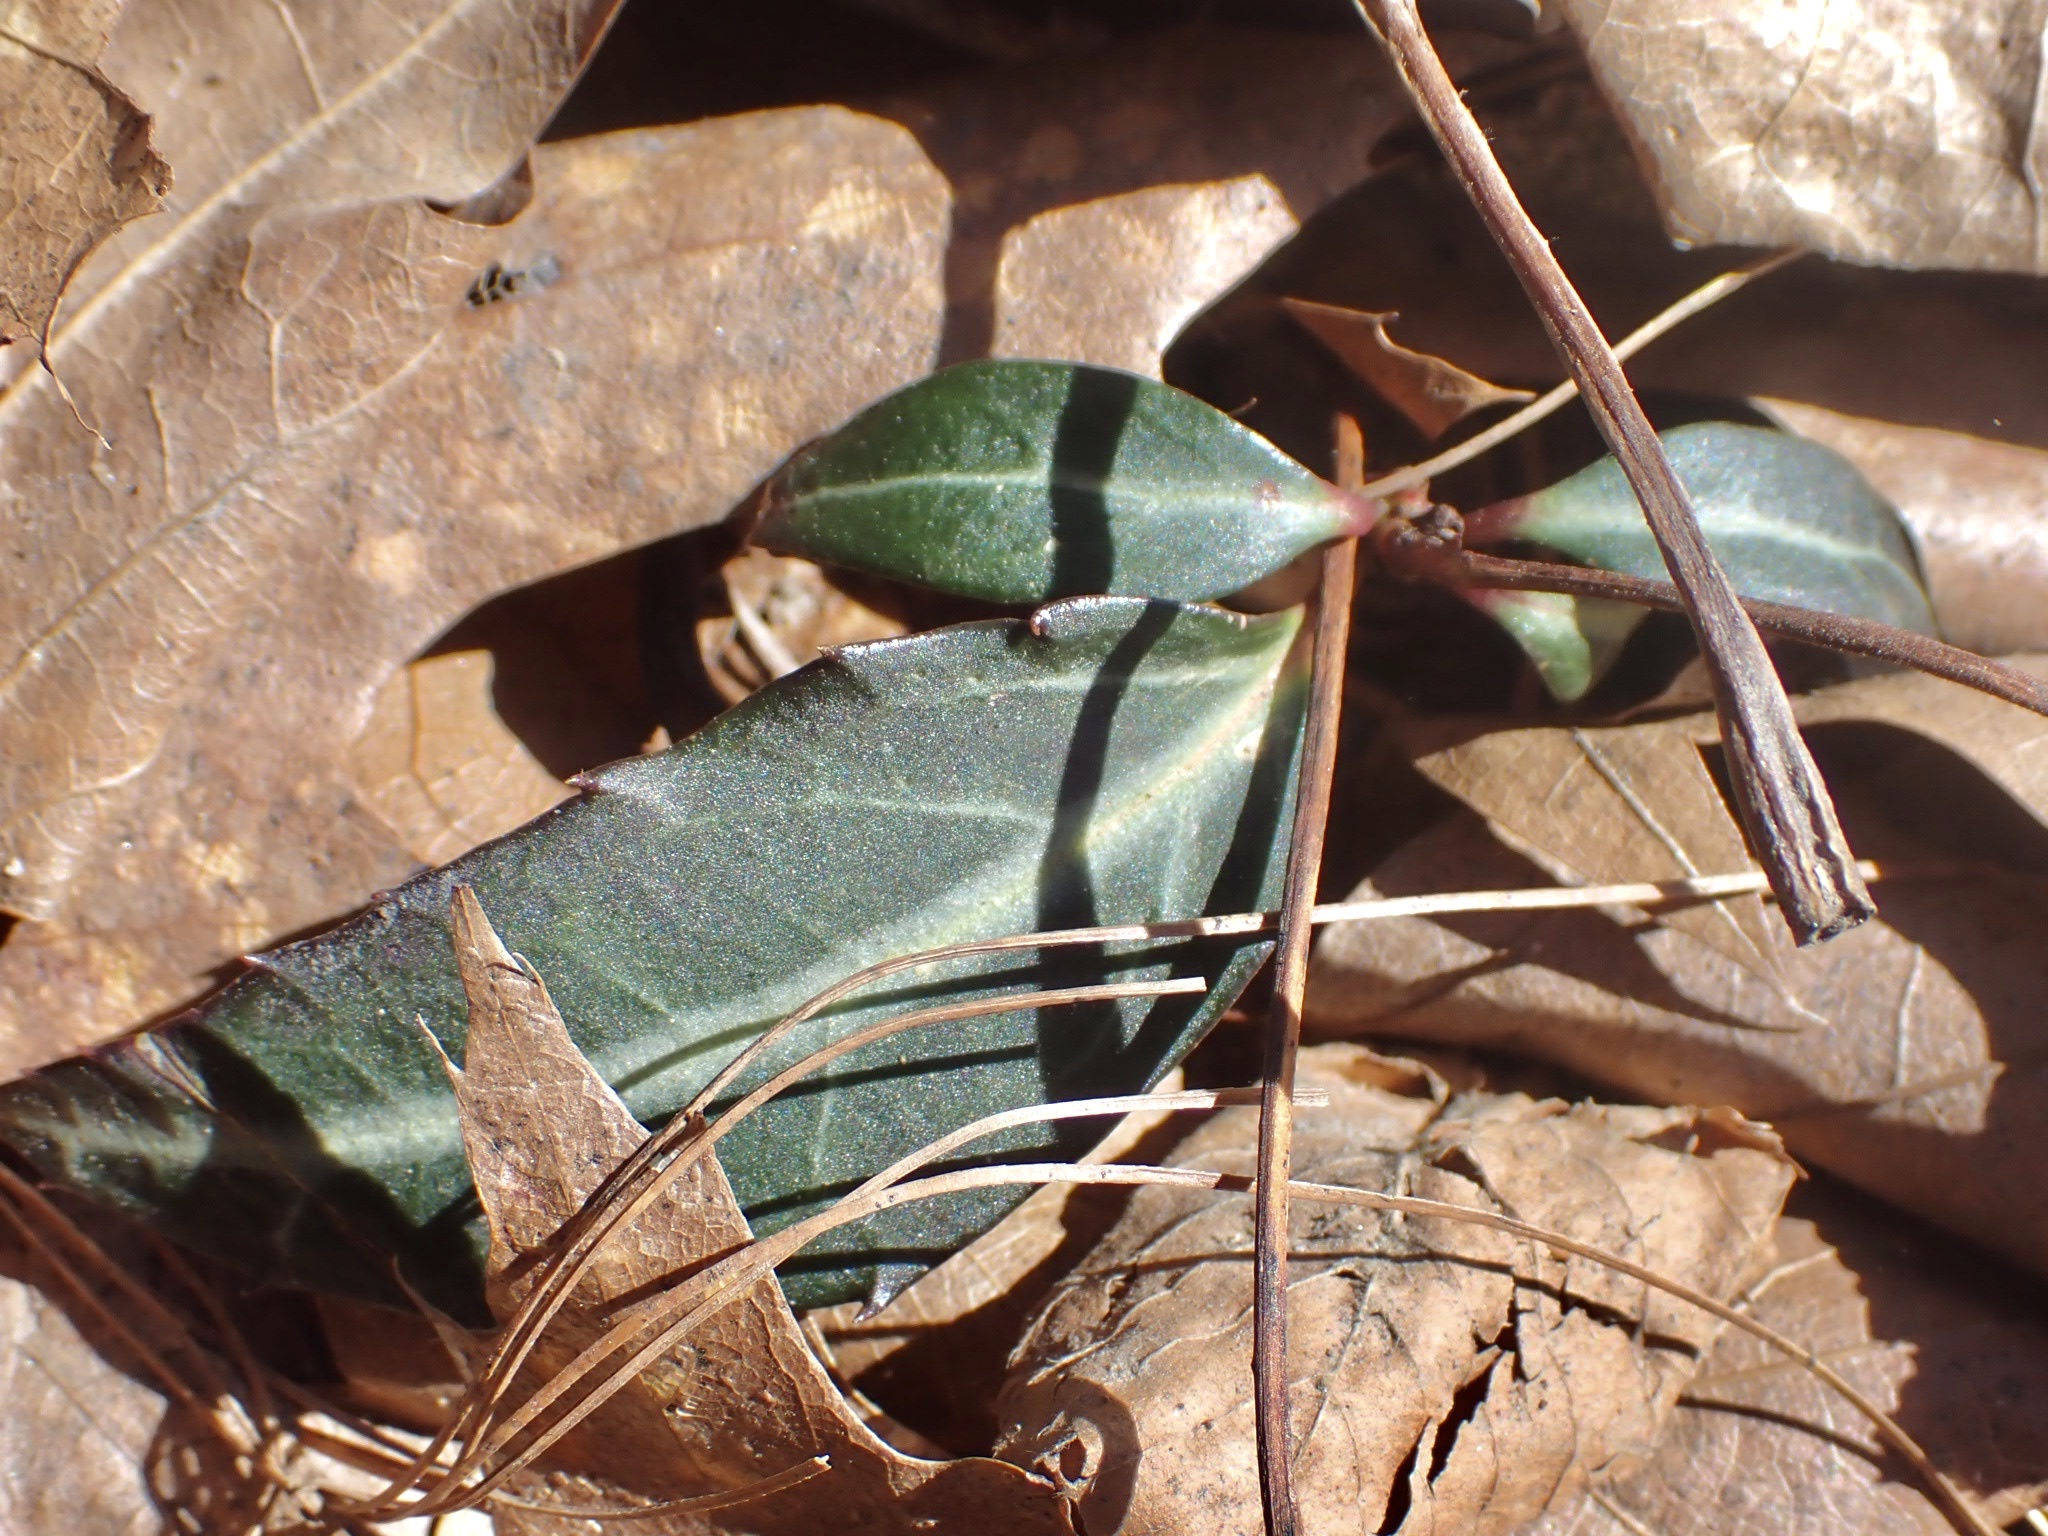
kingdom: Plantae
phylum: Tracheophyta
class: Magnoliopsida
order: Ericales
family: Ericaceae
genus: Chimaphila
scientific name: Chimaphila maculata
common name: Spotted pipsissewa
